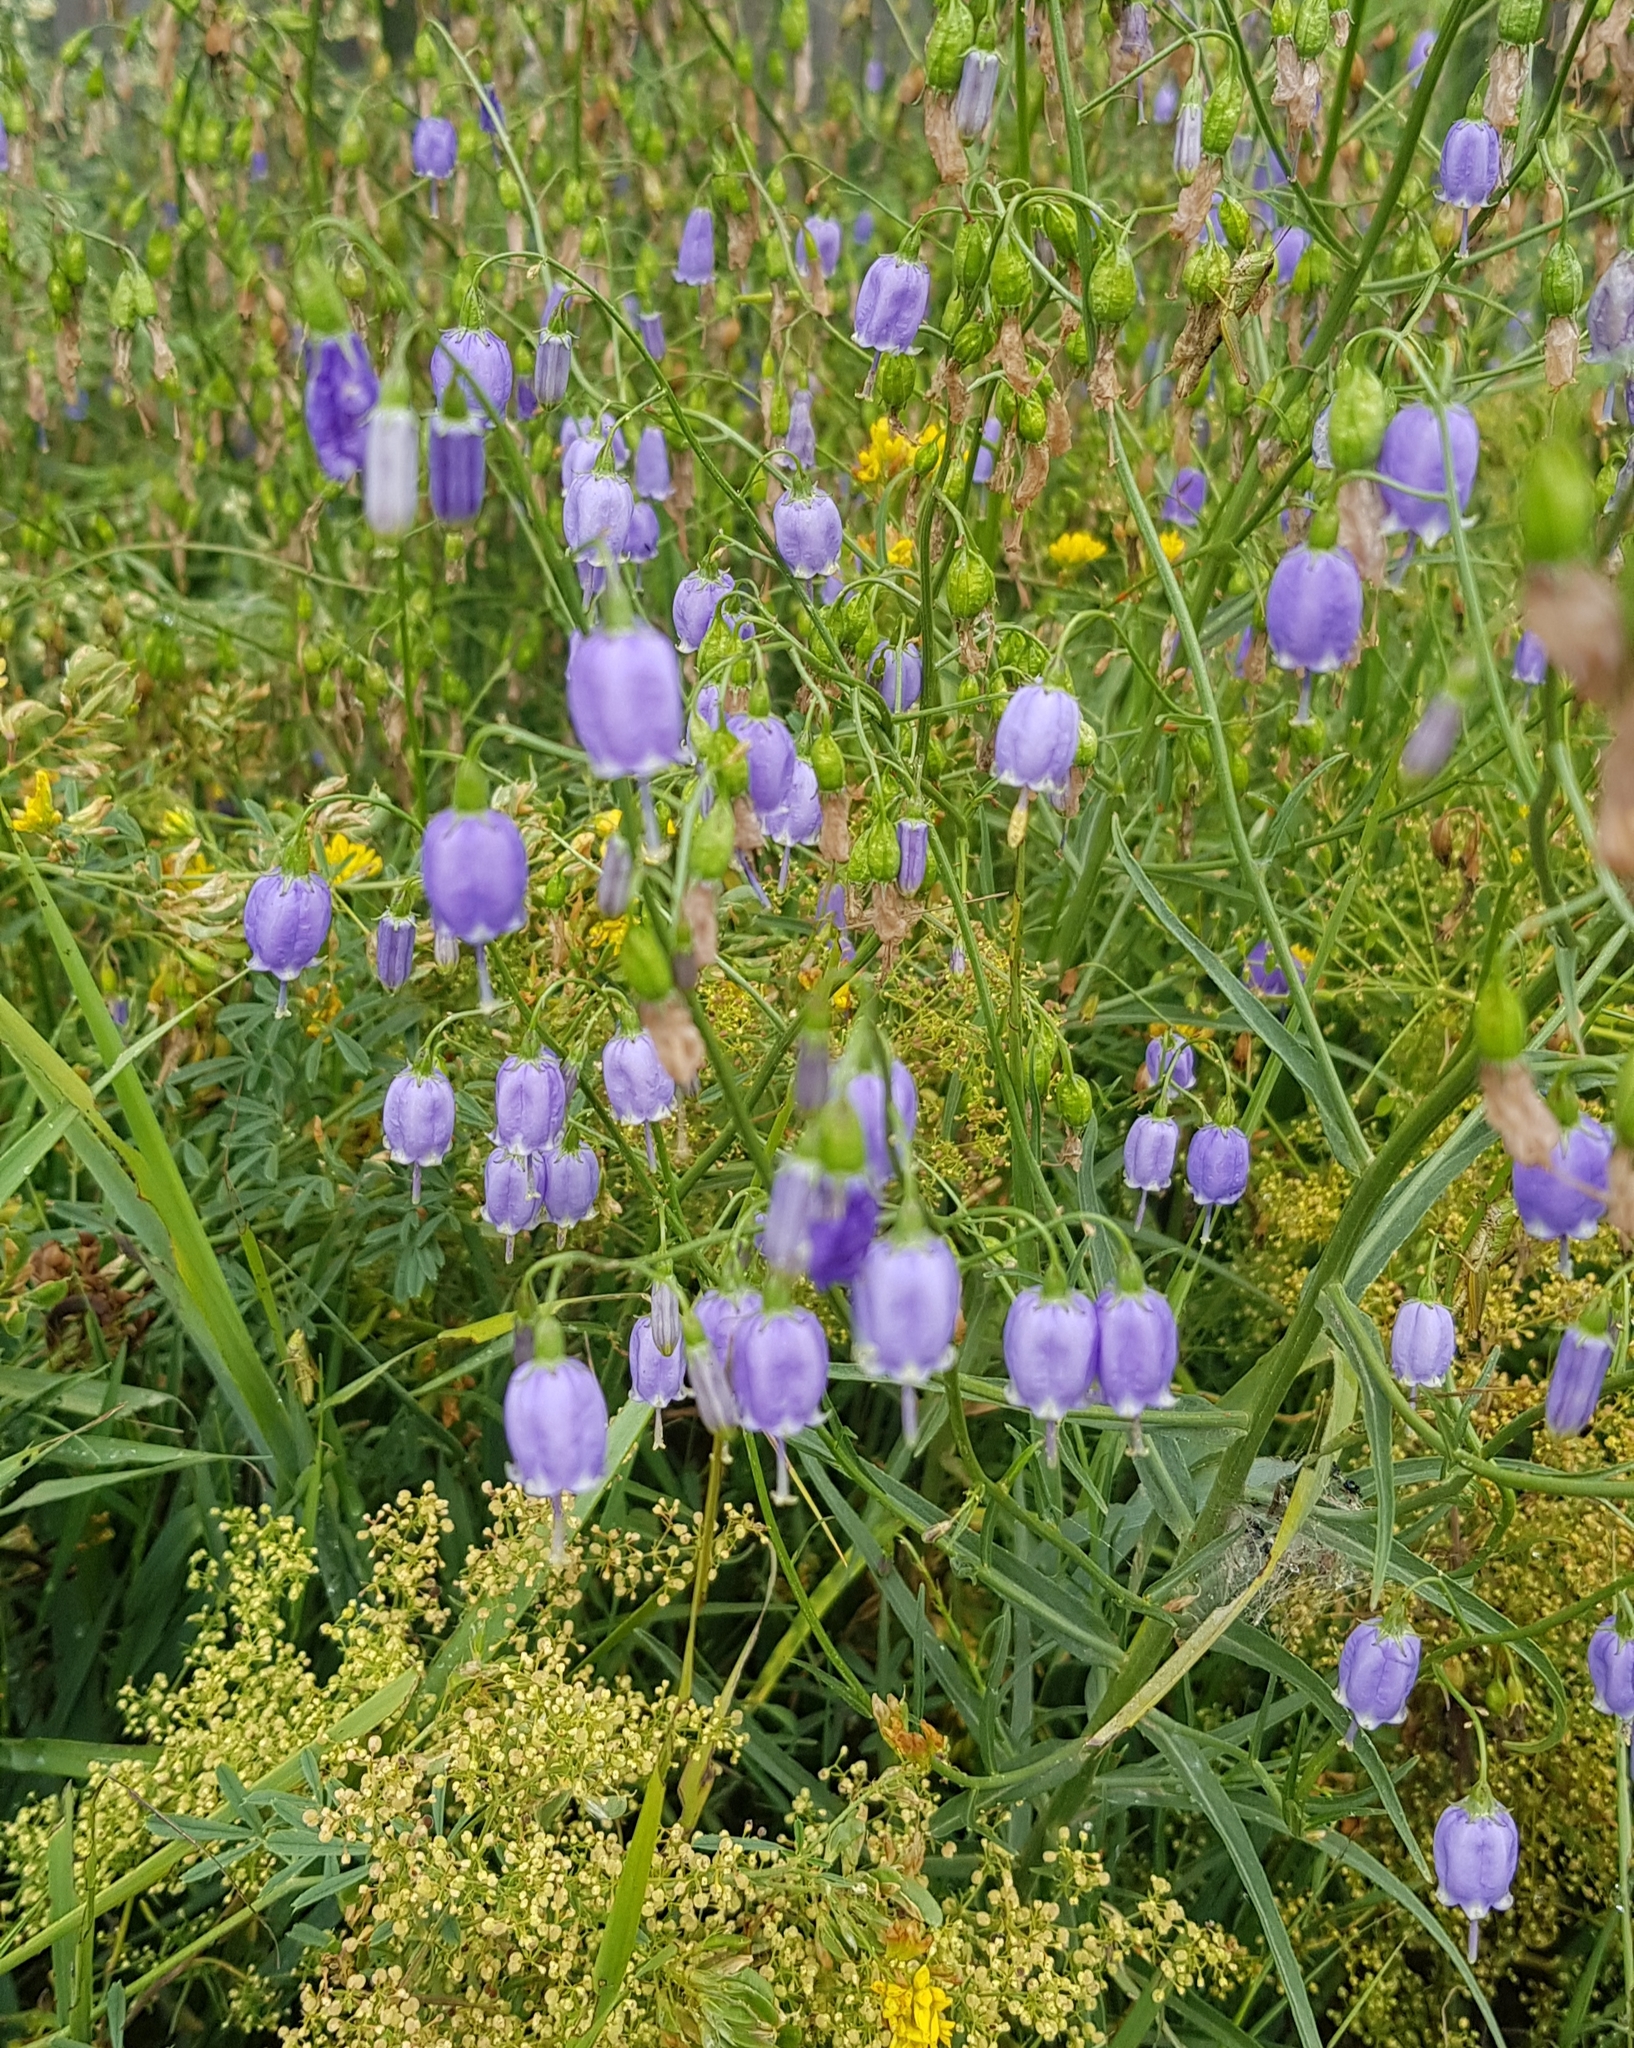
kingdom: Plantae
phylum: Tracheophyta
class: Magnoliopsida
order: Asterales
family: Campanulaceae
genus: Adenophora
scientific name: Adenophora stenanthina
